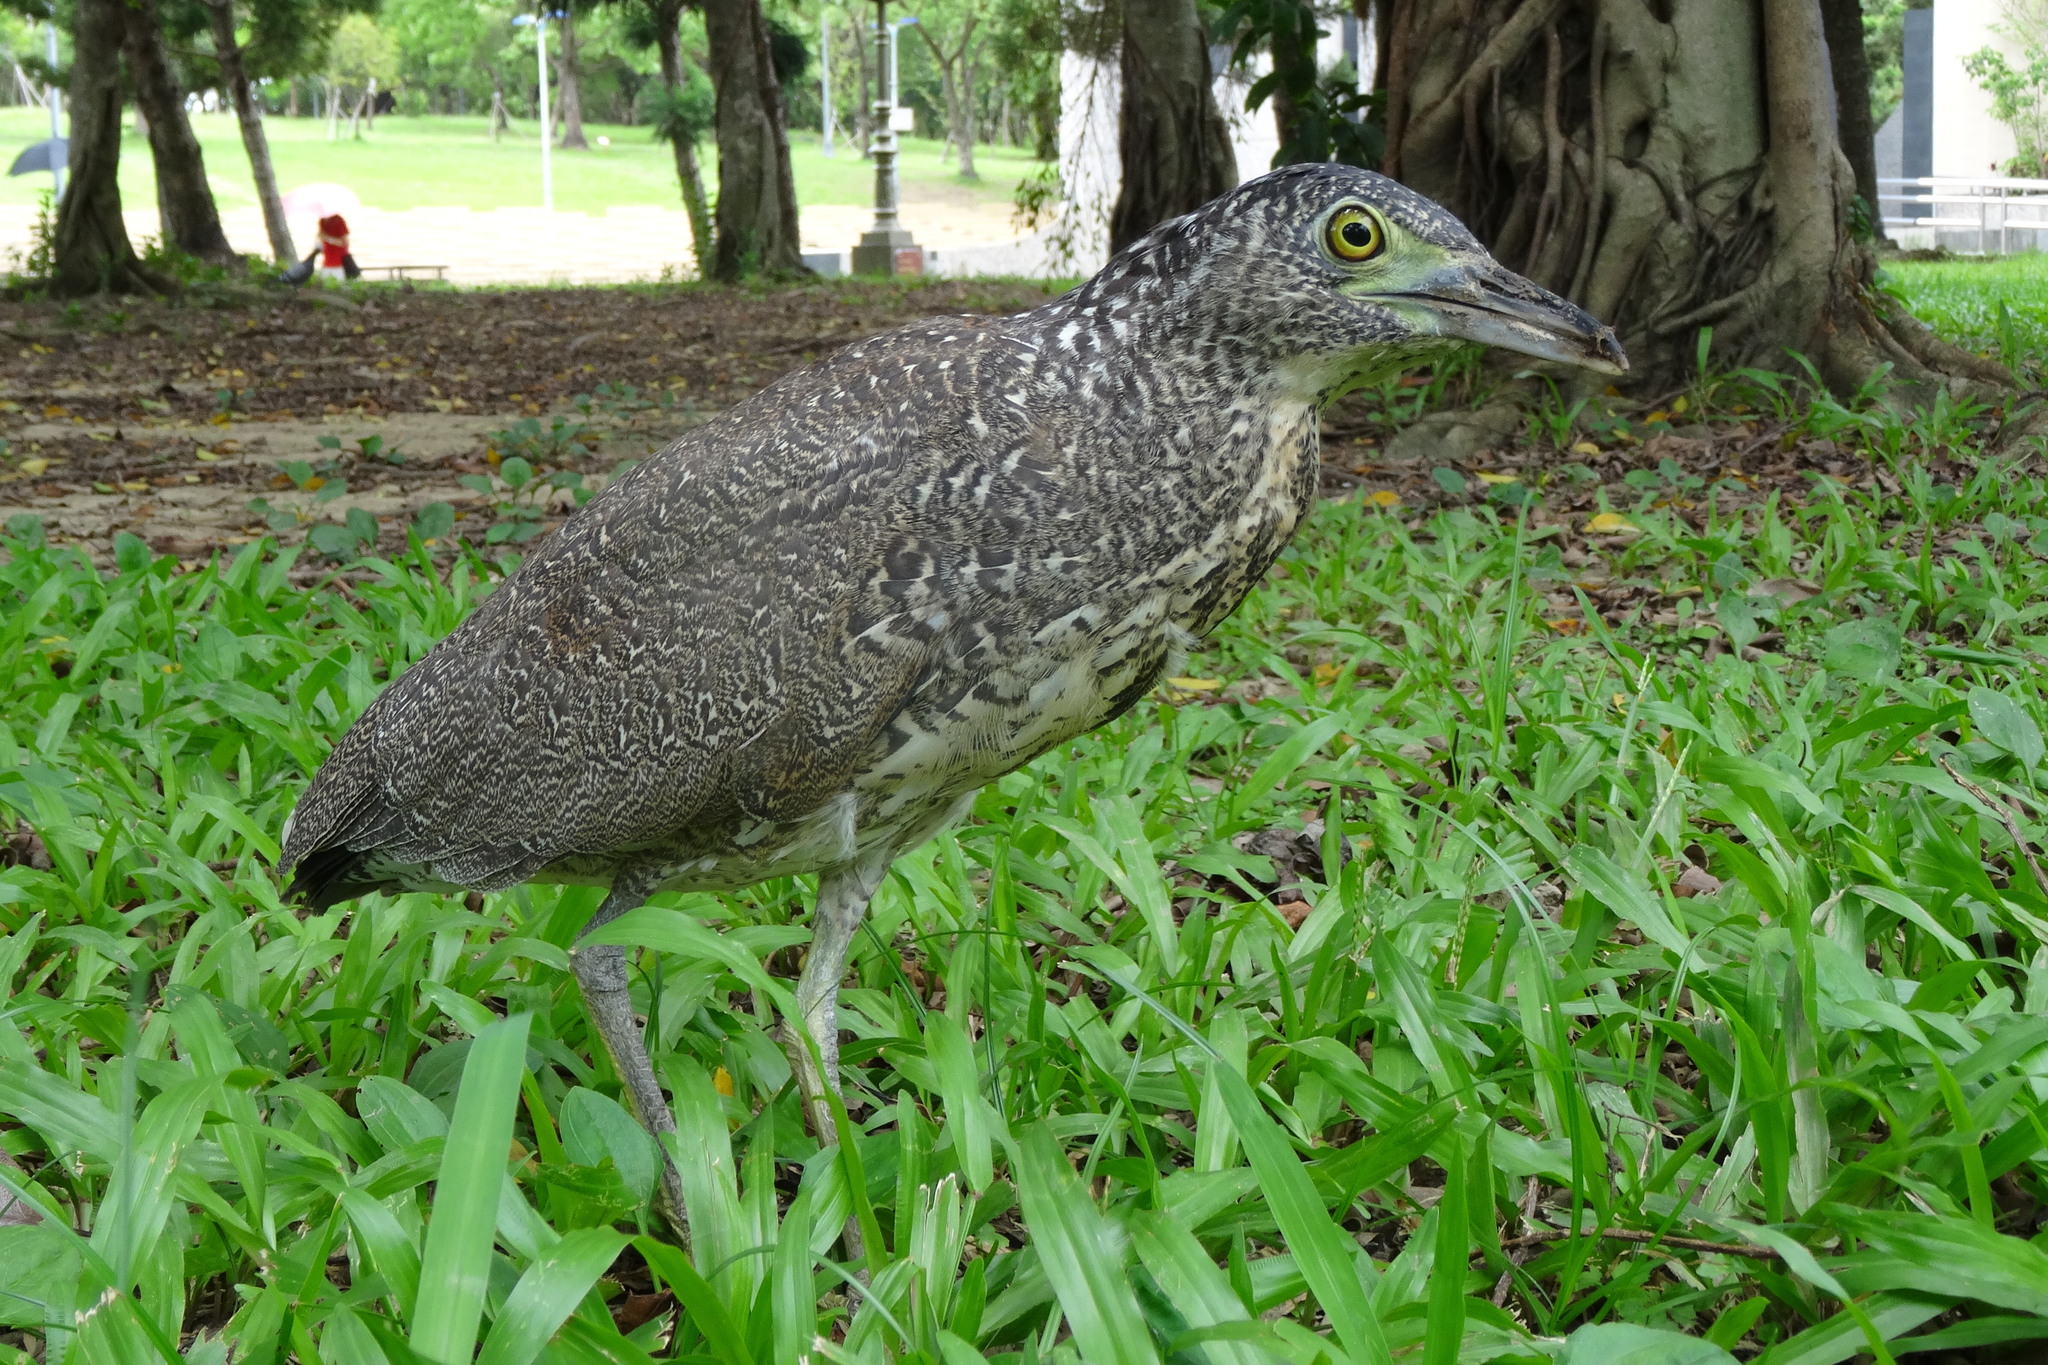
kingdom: Animalia
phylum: Chordata
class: Aves
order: Pelecaniformes
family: Ardeidae
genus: Gorsachius
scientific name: Gorsachius melanolophus
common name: Malayan night heron
